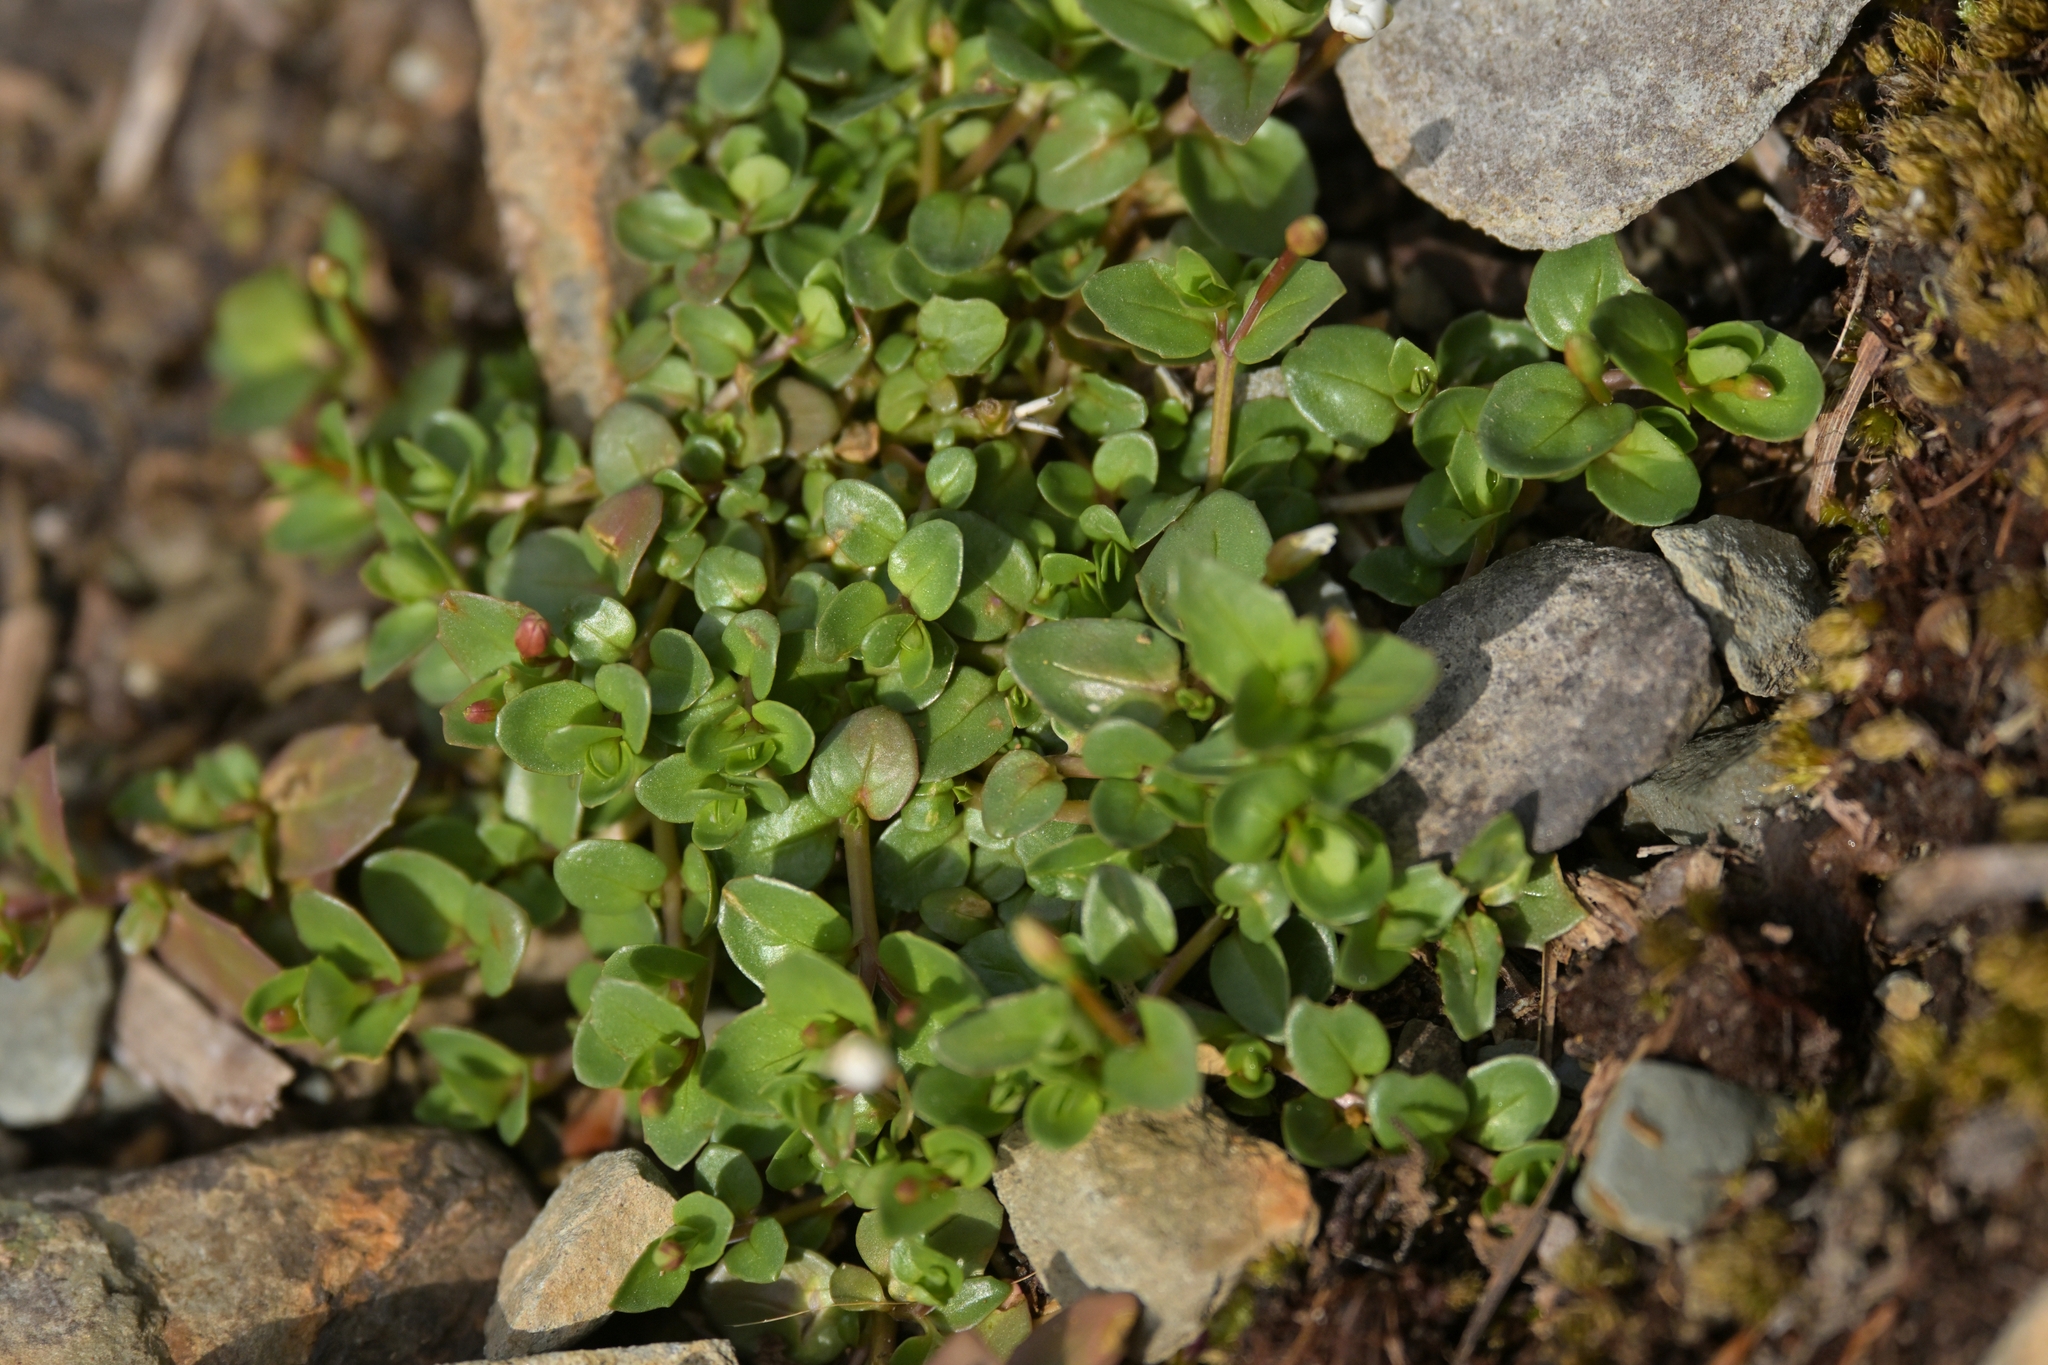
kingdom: Plantae
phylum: Tracheophyta
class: Magnoliopsida
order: Myrtales
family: Onagraceae
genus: Epilobium
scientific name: Epilobium alsinoides
